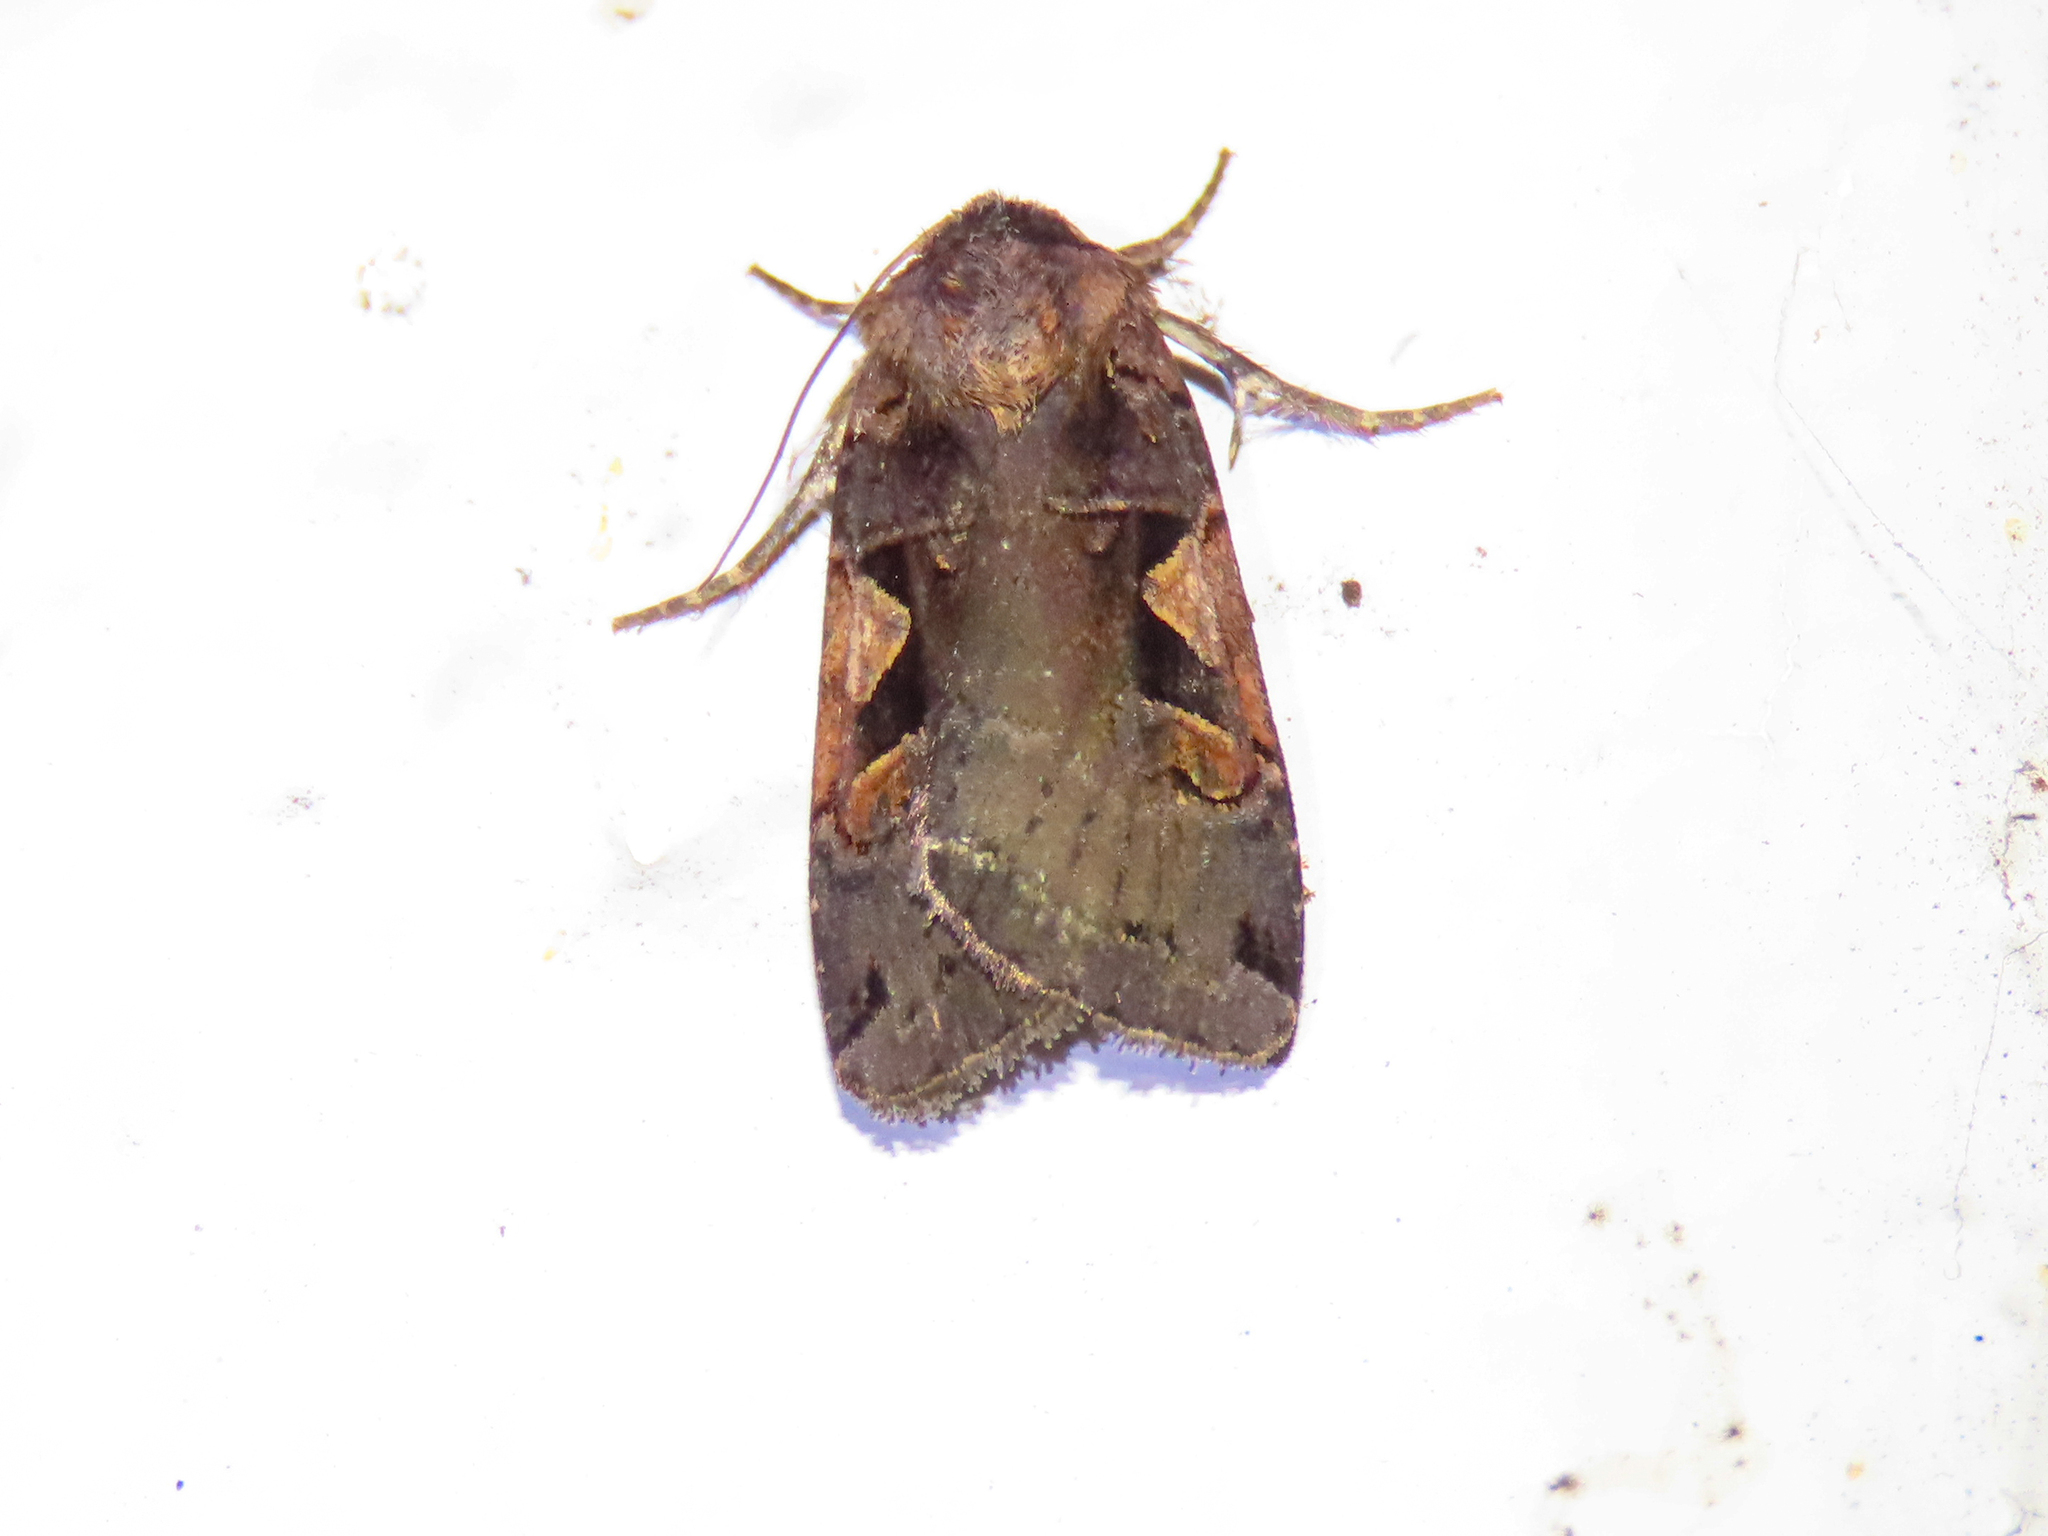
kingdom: Animalia
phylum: Arthropoda
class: Insecta
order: Lepidoptera
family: Noctuidae
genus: Xestia
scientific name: Xestia c-nigrum
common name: Setaceous hebrew character
